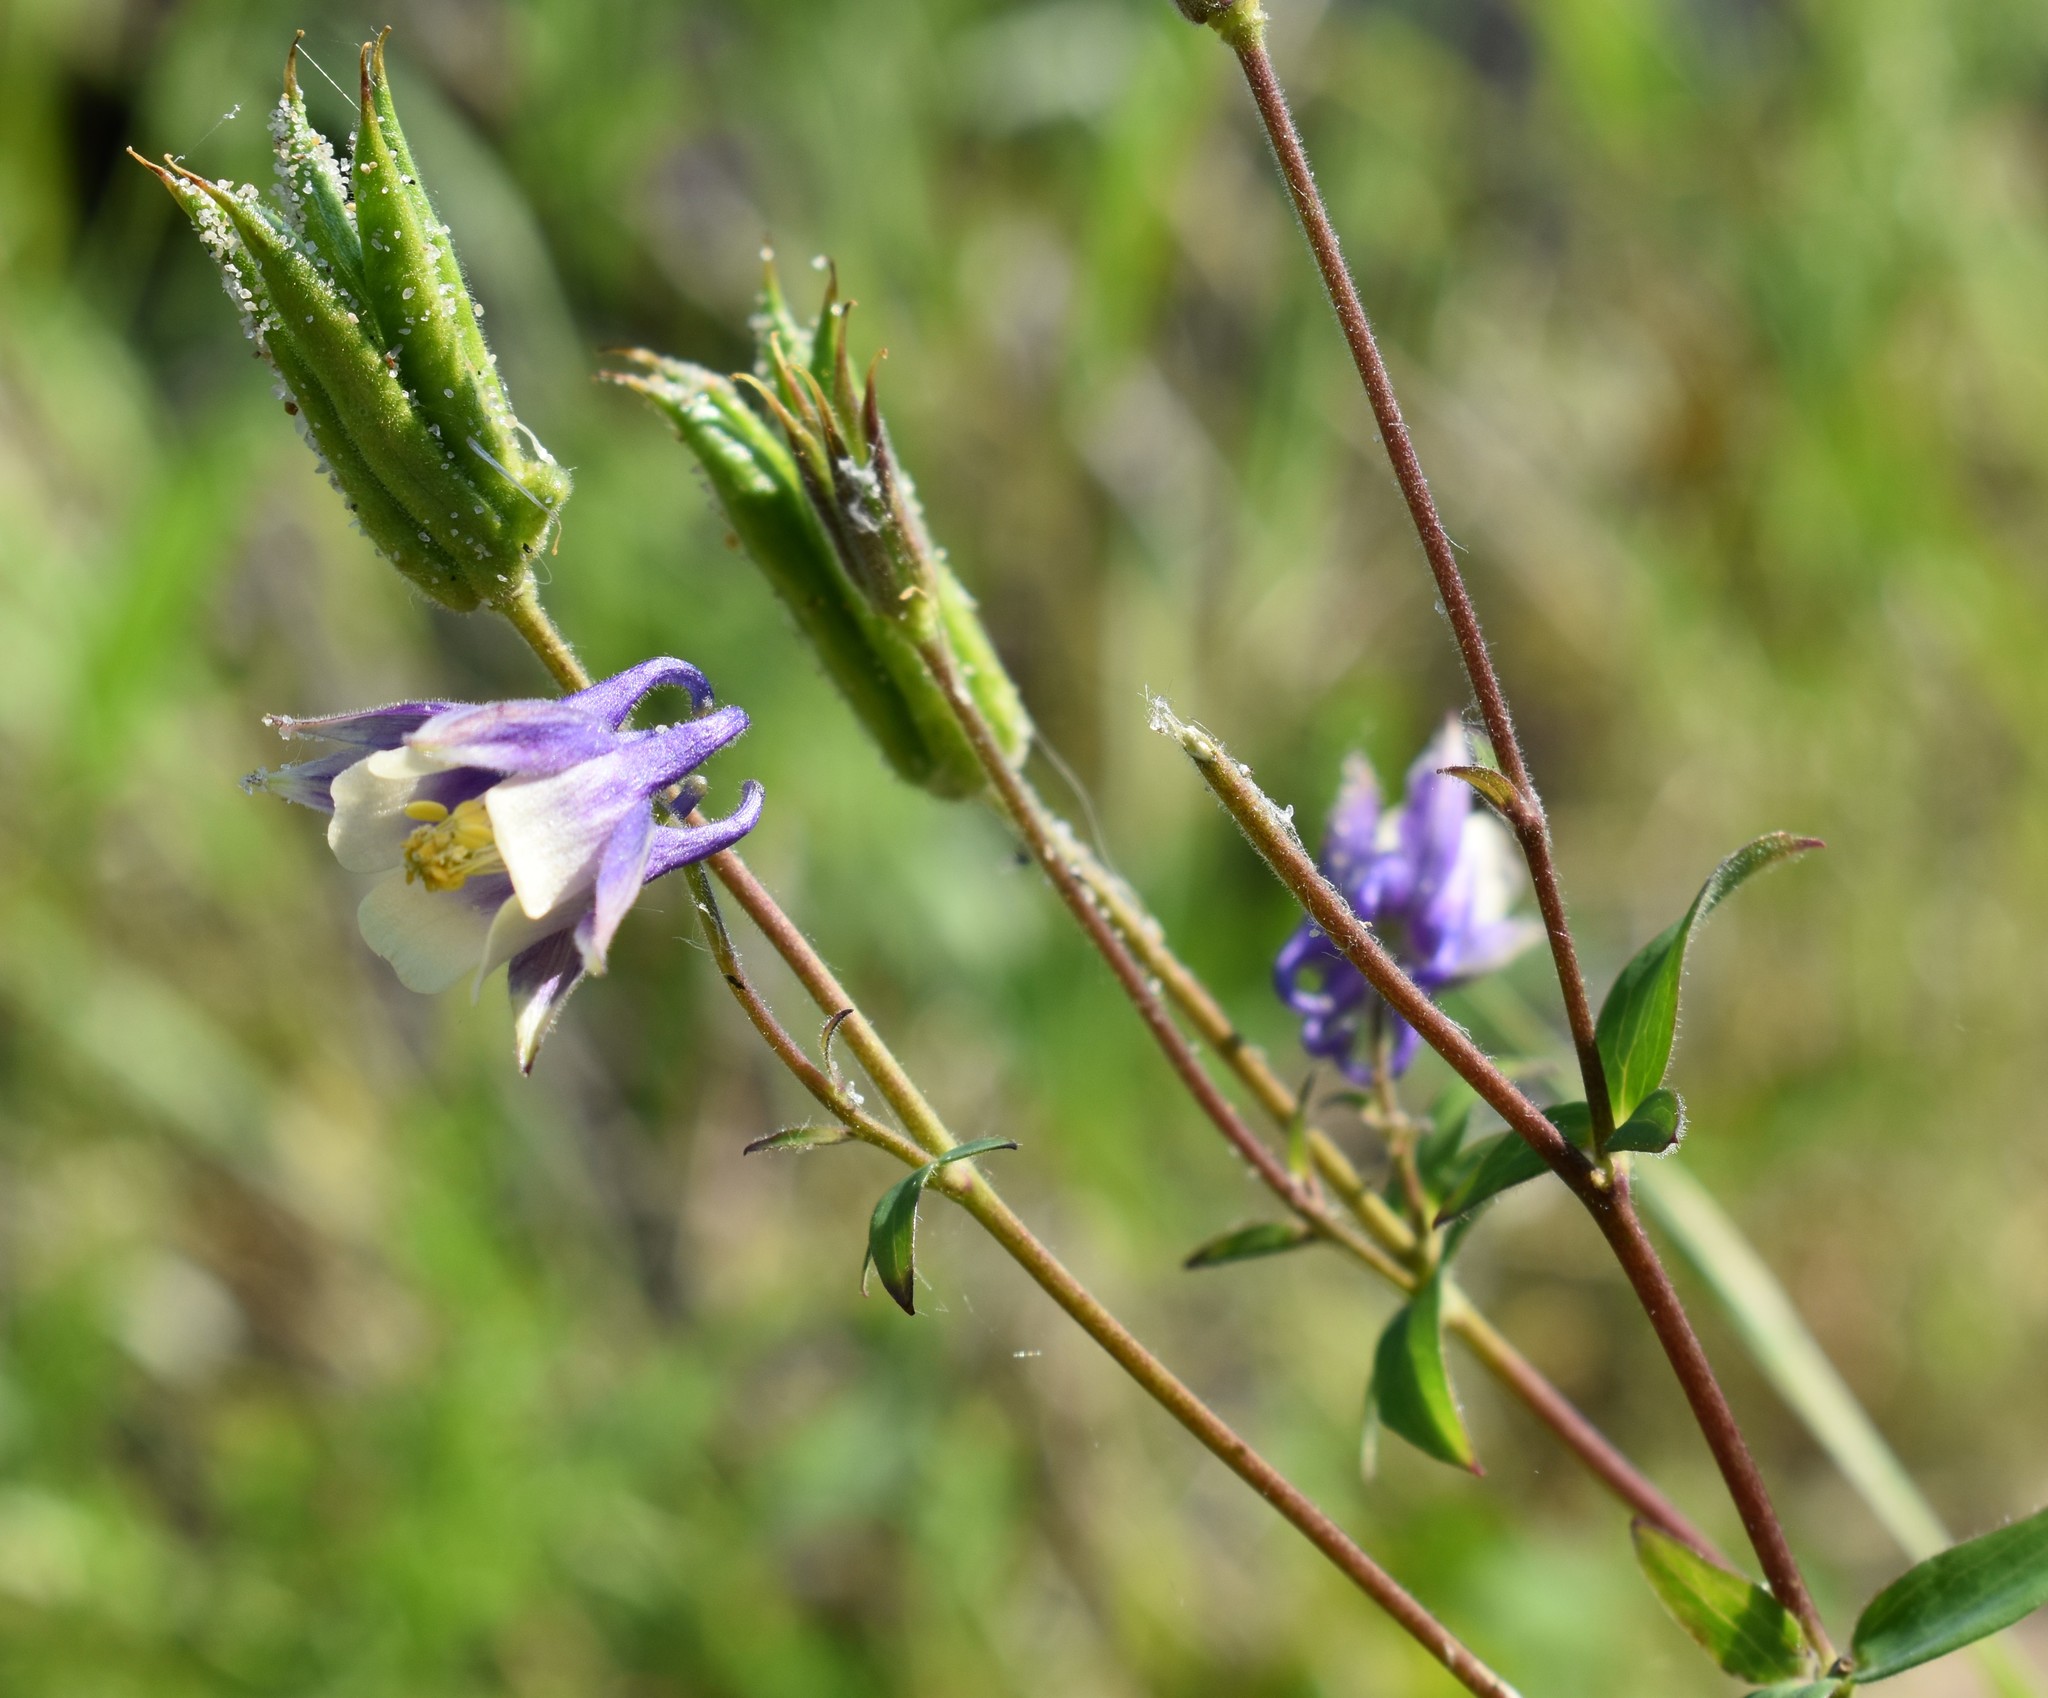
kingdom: Plantae
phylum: Tracheophyta
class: Magnoliopsida
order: Ranunculales
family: Ranunculaceae
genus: Aquilegia
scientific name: Aquilegia brevistyla
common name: Yukon columbine
